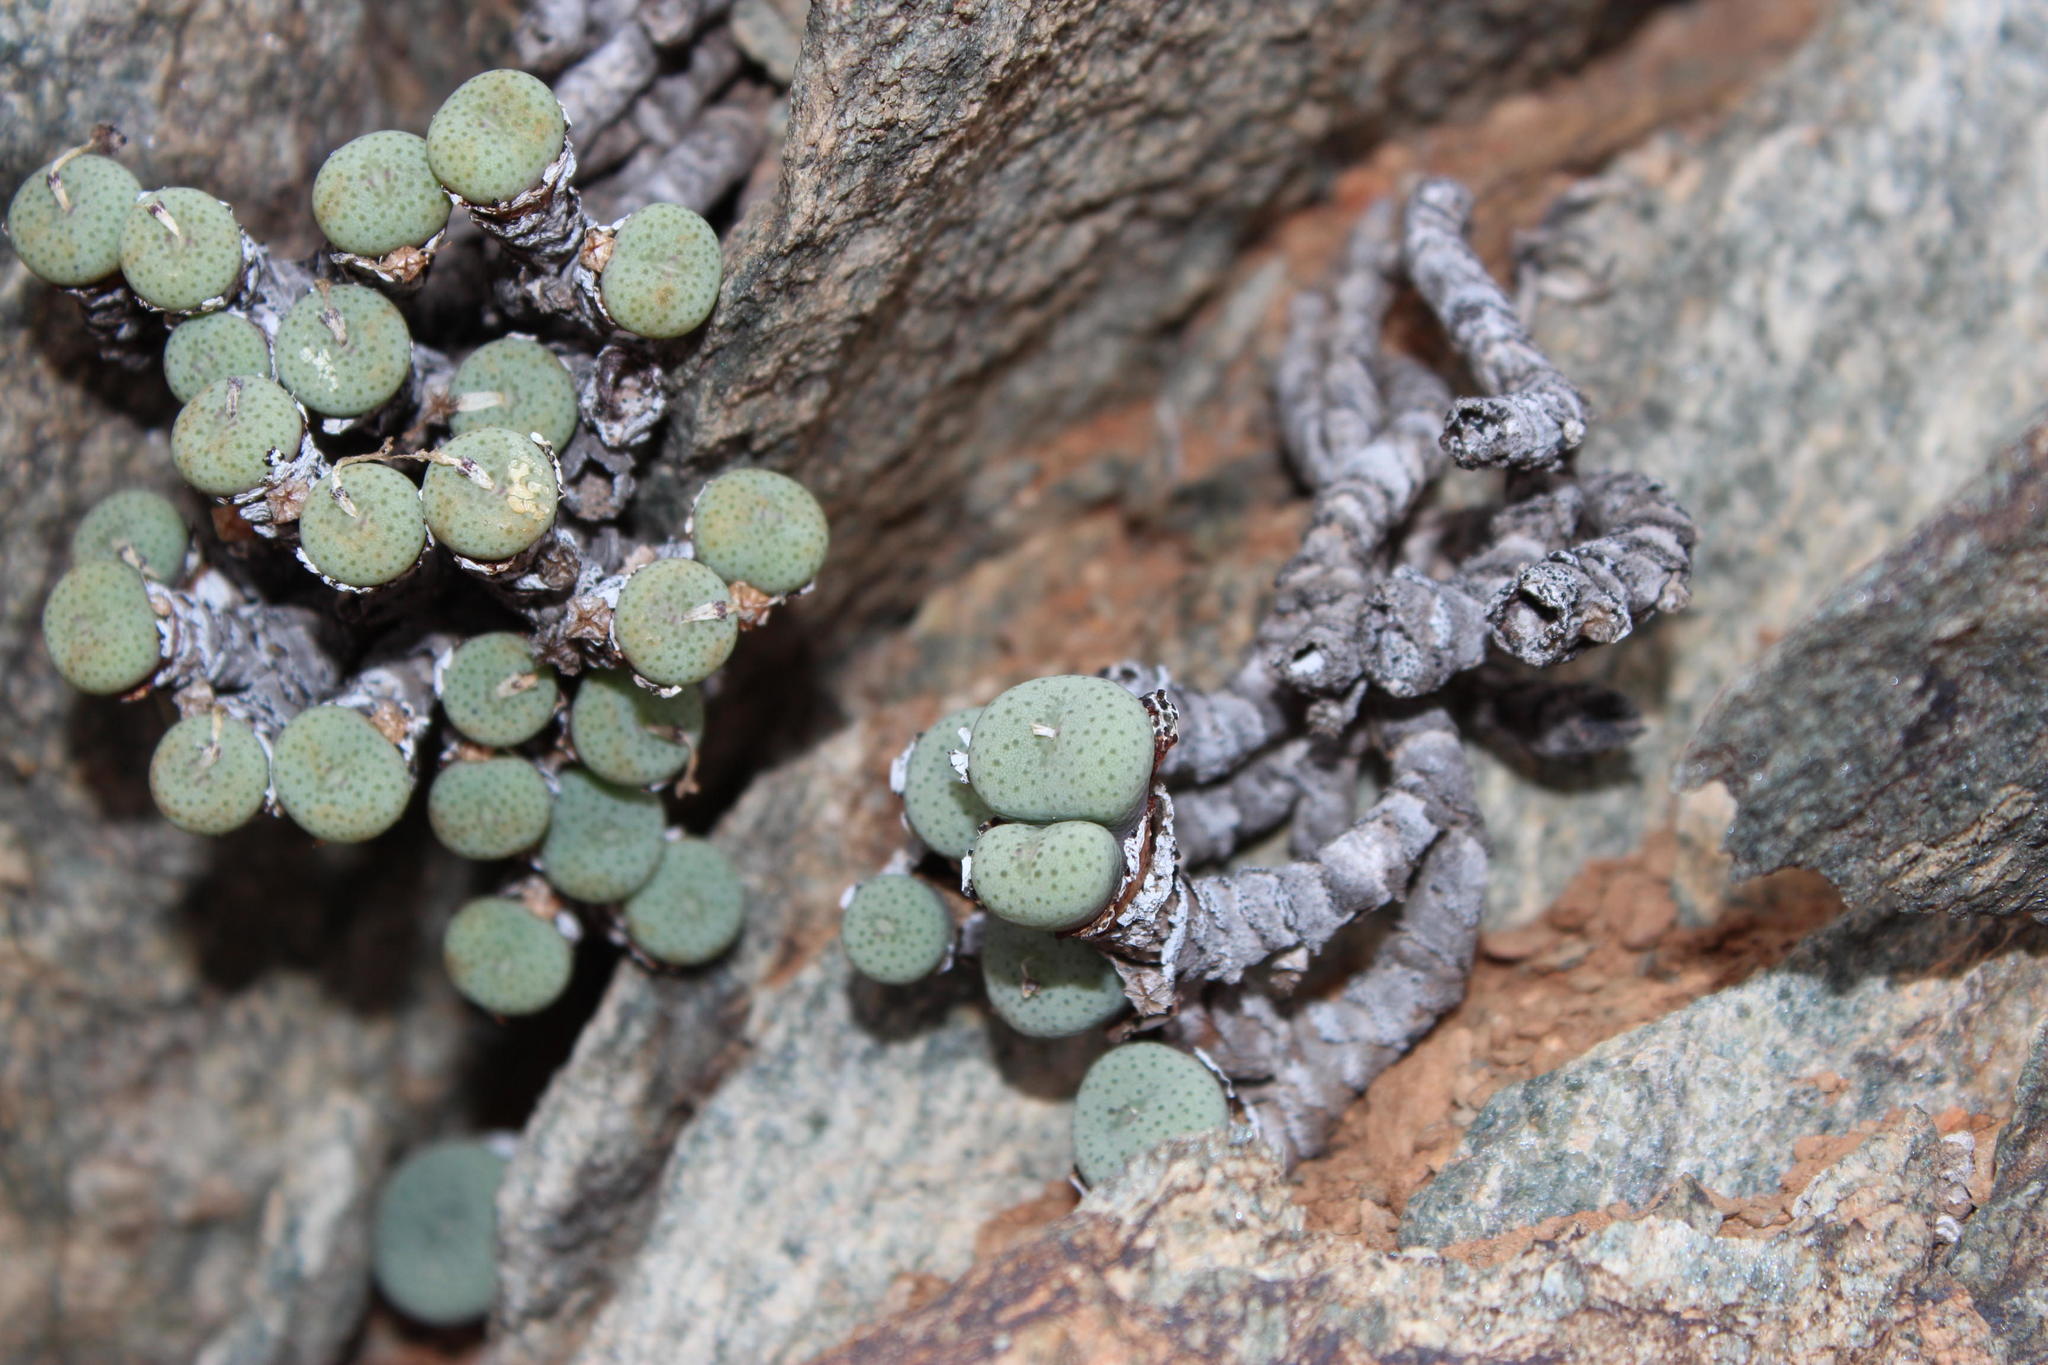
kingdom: Plantae
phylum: Tracheophyta
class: Magnoliopsida
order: Caryophyllales
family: Aizoaceae
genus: Conophytum
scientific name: Conophytum jucundum
